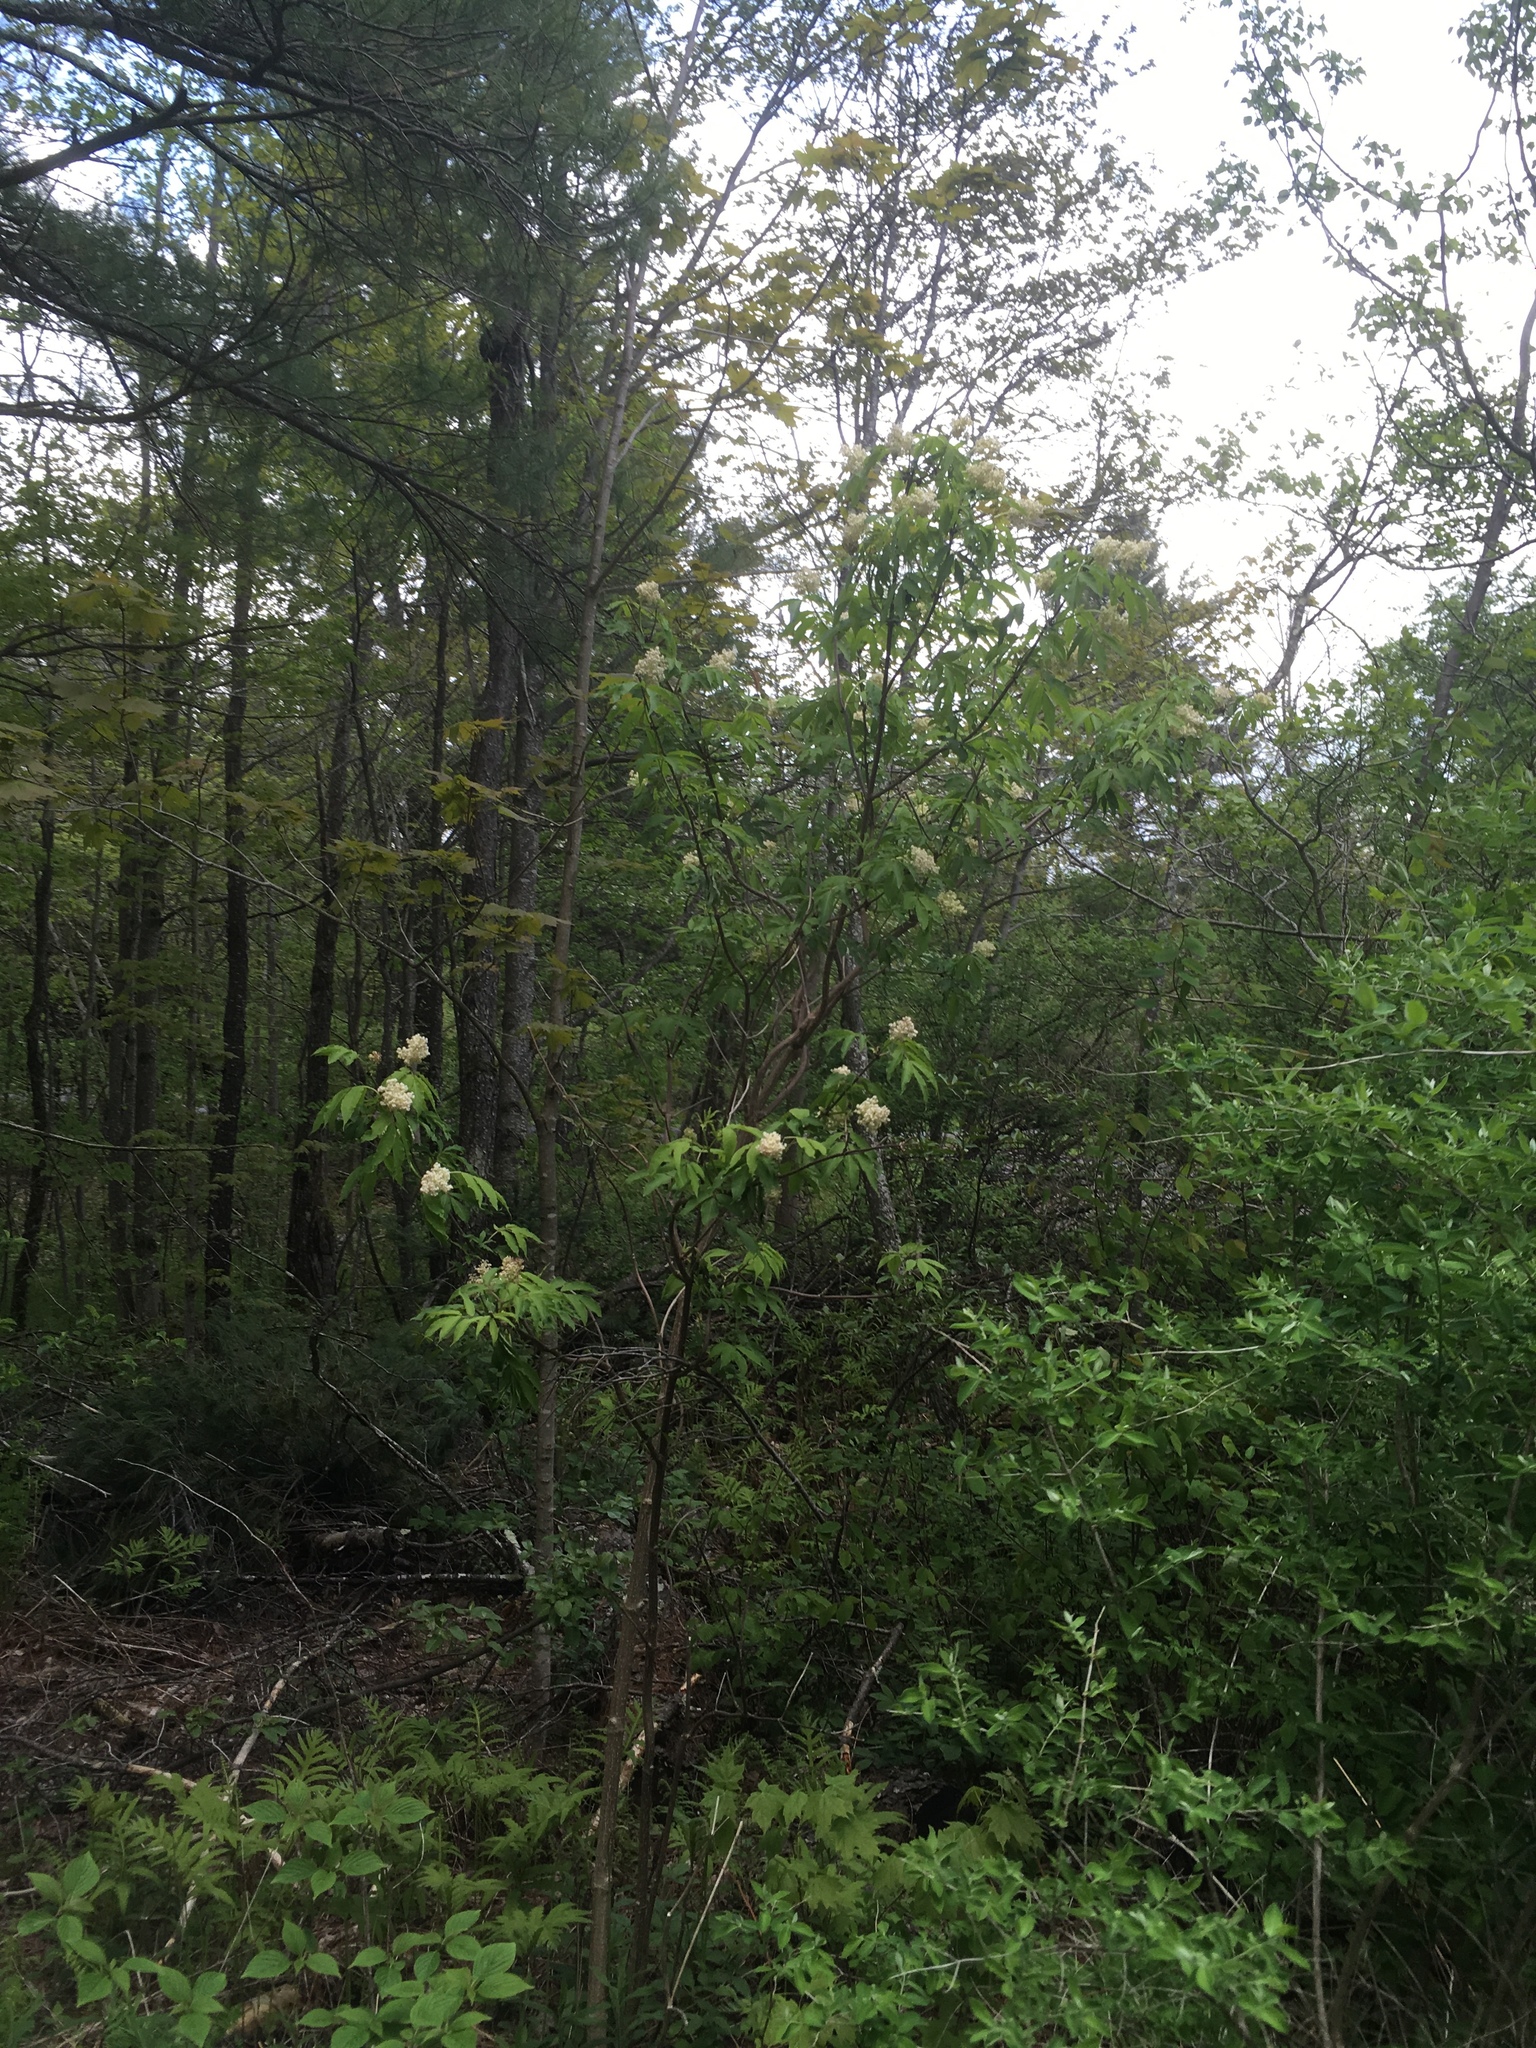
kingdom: Plantae
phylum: Tracheophyta
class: Magnoliopsida
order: Dipsacales
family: Viburnaceae
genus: Sambucus
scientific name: Sambucus racemosa
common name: Red-berried elder
